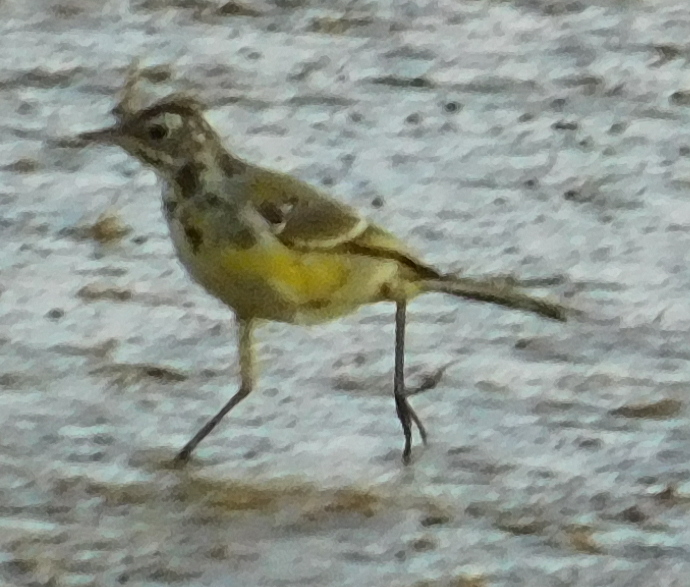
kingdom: Animalia
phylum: Chordata
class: Aves
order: Passeriformes
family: Motacillidae
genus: Motacilla
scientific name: Motacilla flava
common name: Western yellow wagtail
